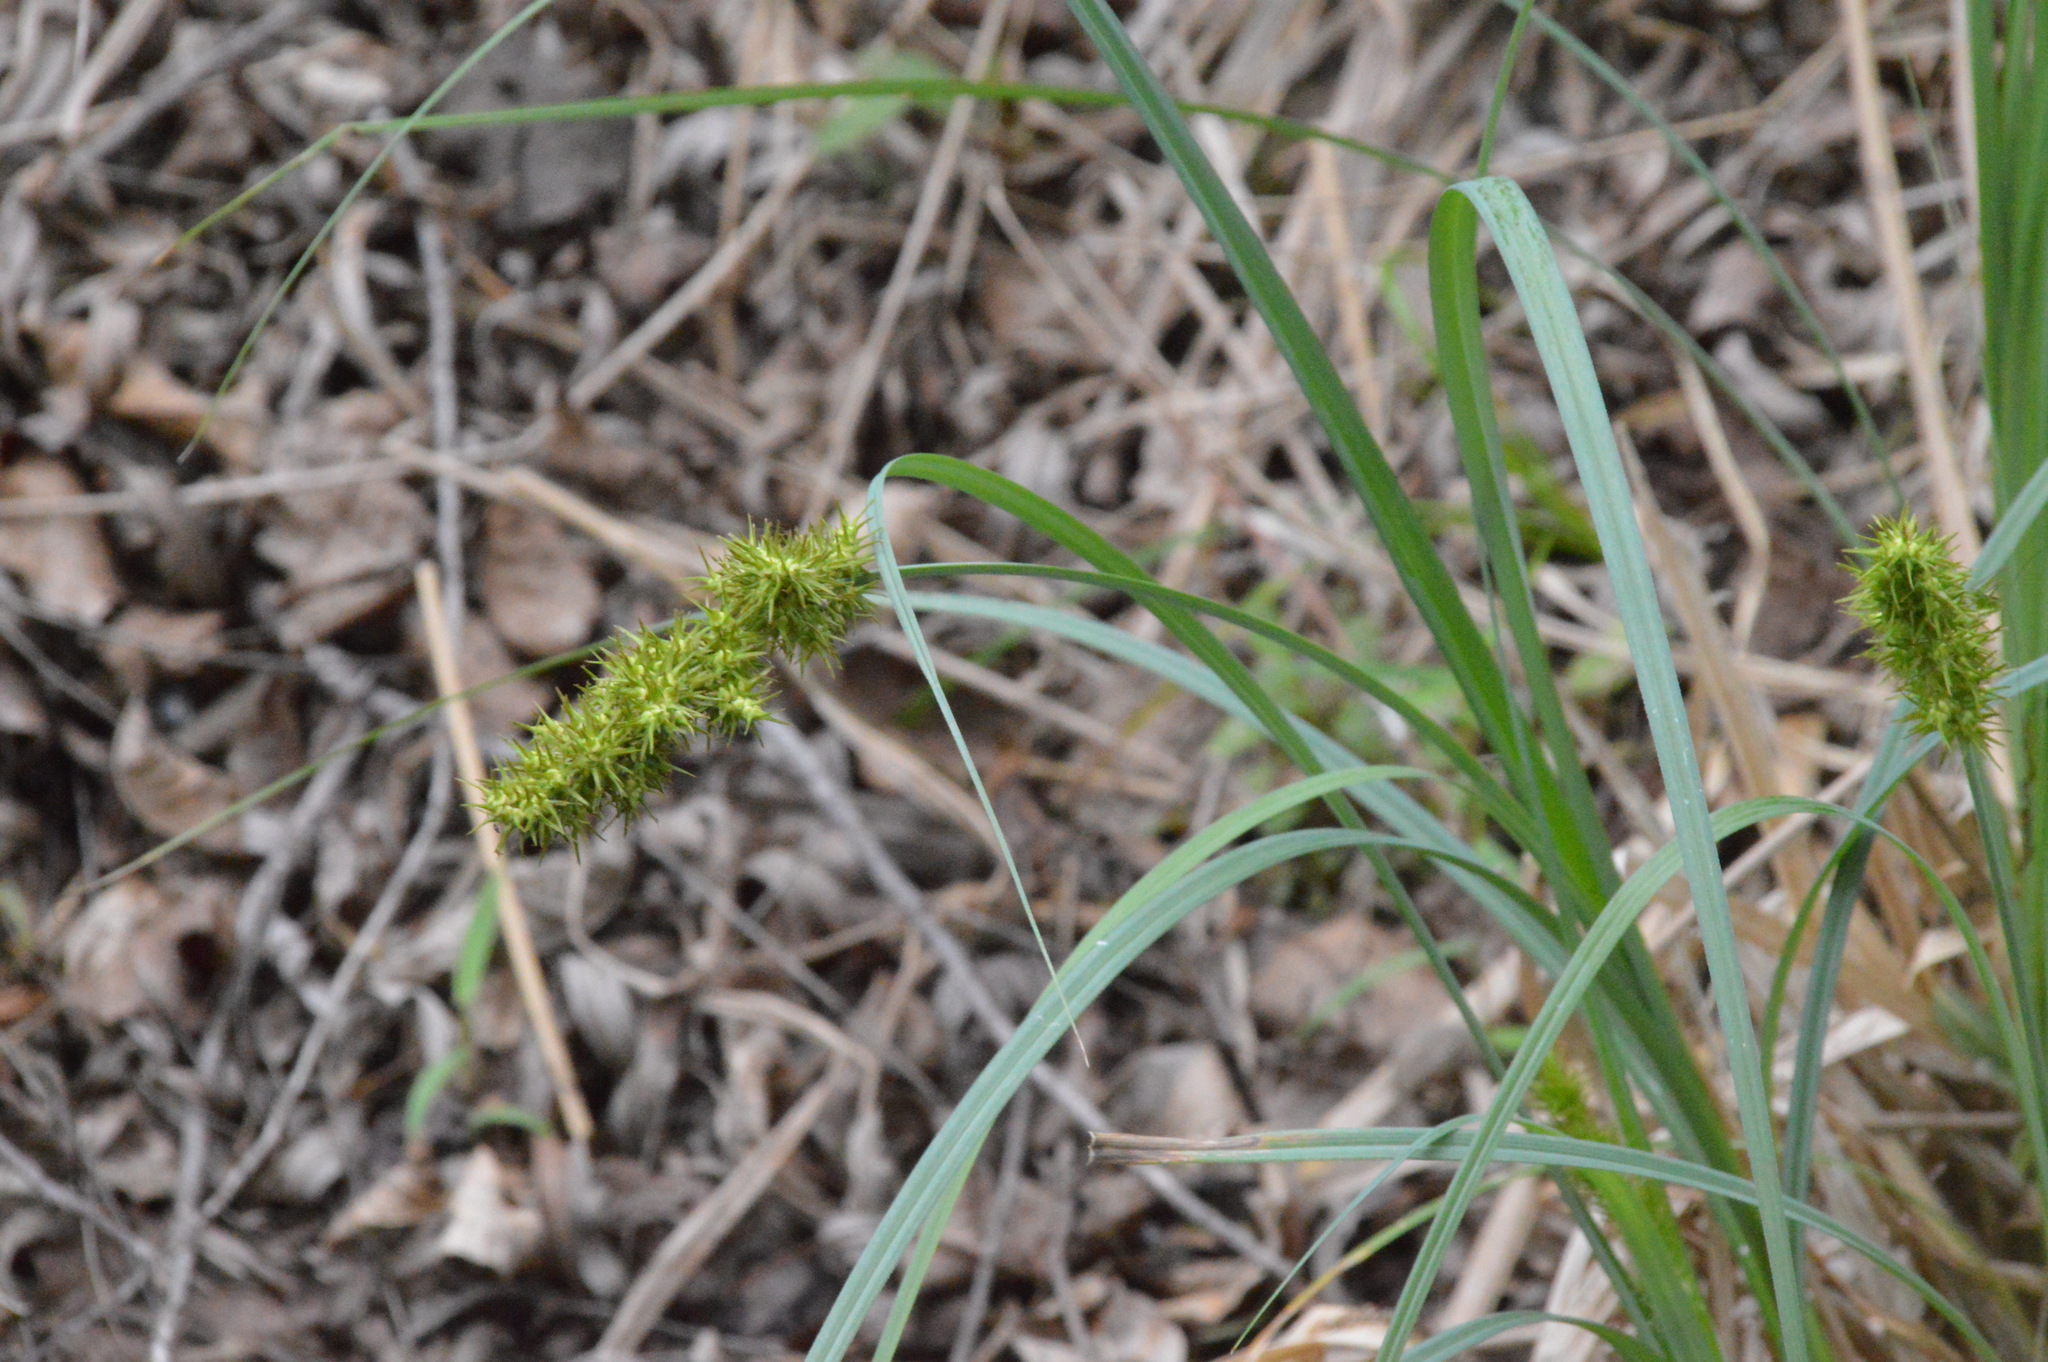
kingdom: Plantae
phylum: Tracheophyta
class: Liliopsida
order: Poales
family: Cyperaceae
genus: Carex
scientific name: Carex crus-corvi
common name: Crow-spur sedge
